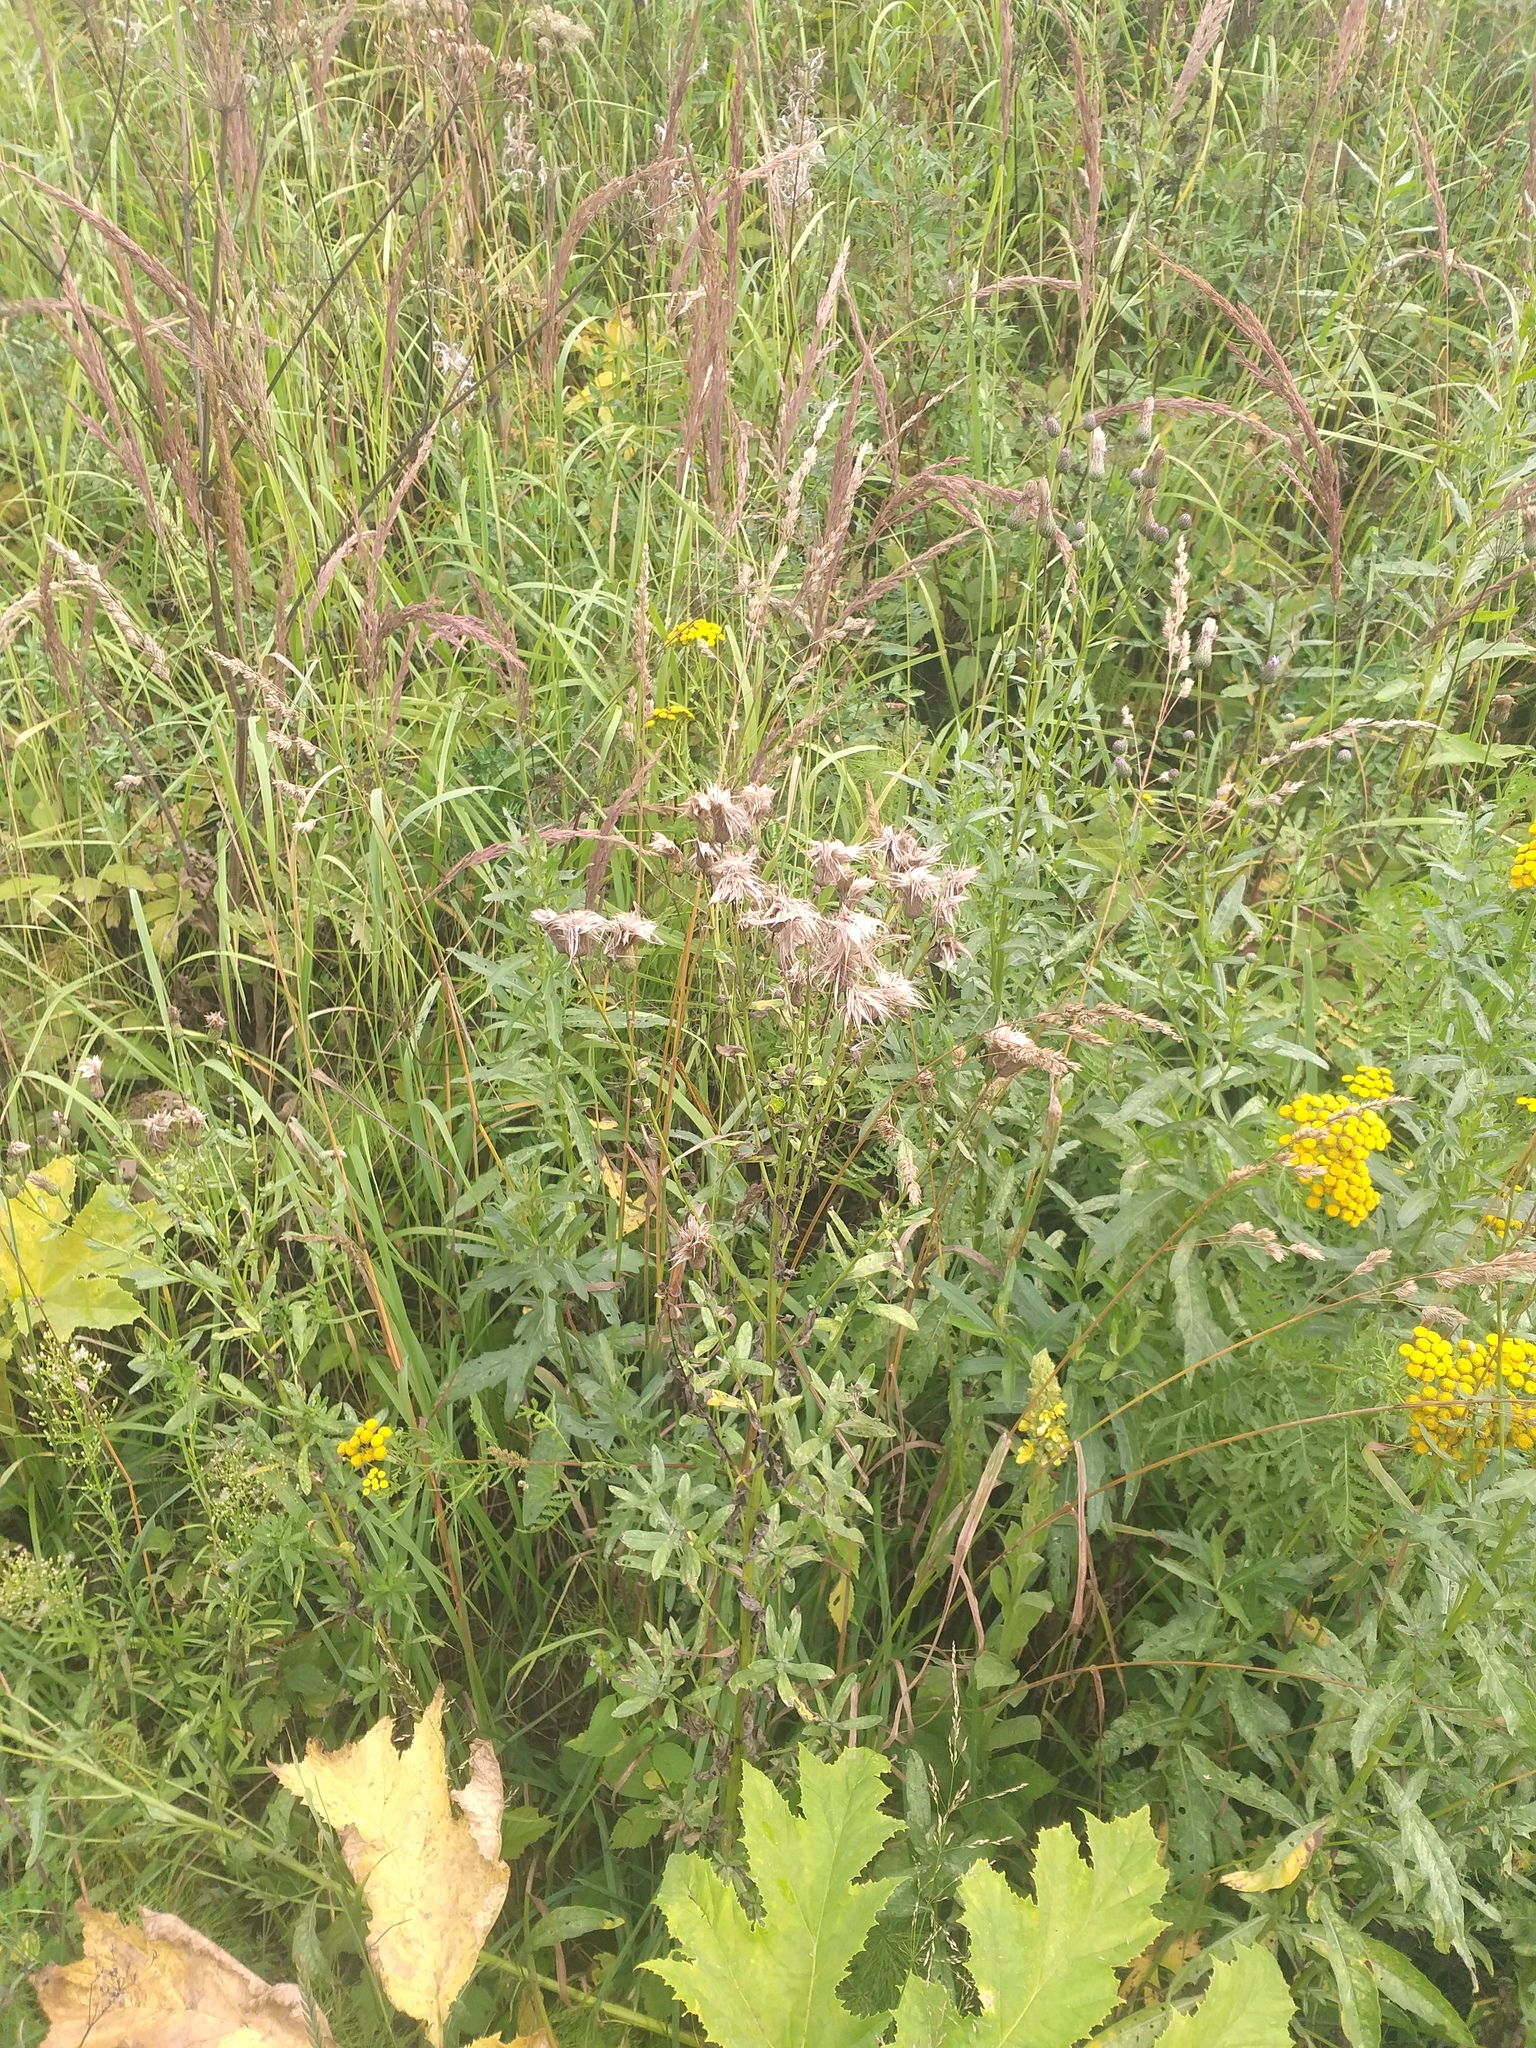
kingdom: Plantae
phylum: Tracheophyta
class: Magnoliopsida
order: Asterales
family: Asteraceae
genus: Cirsium
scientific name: Cirsium arvense
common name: Creeping thistle
